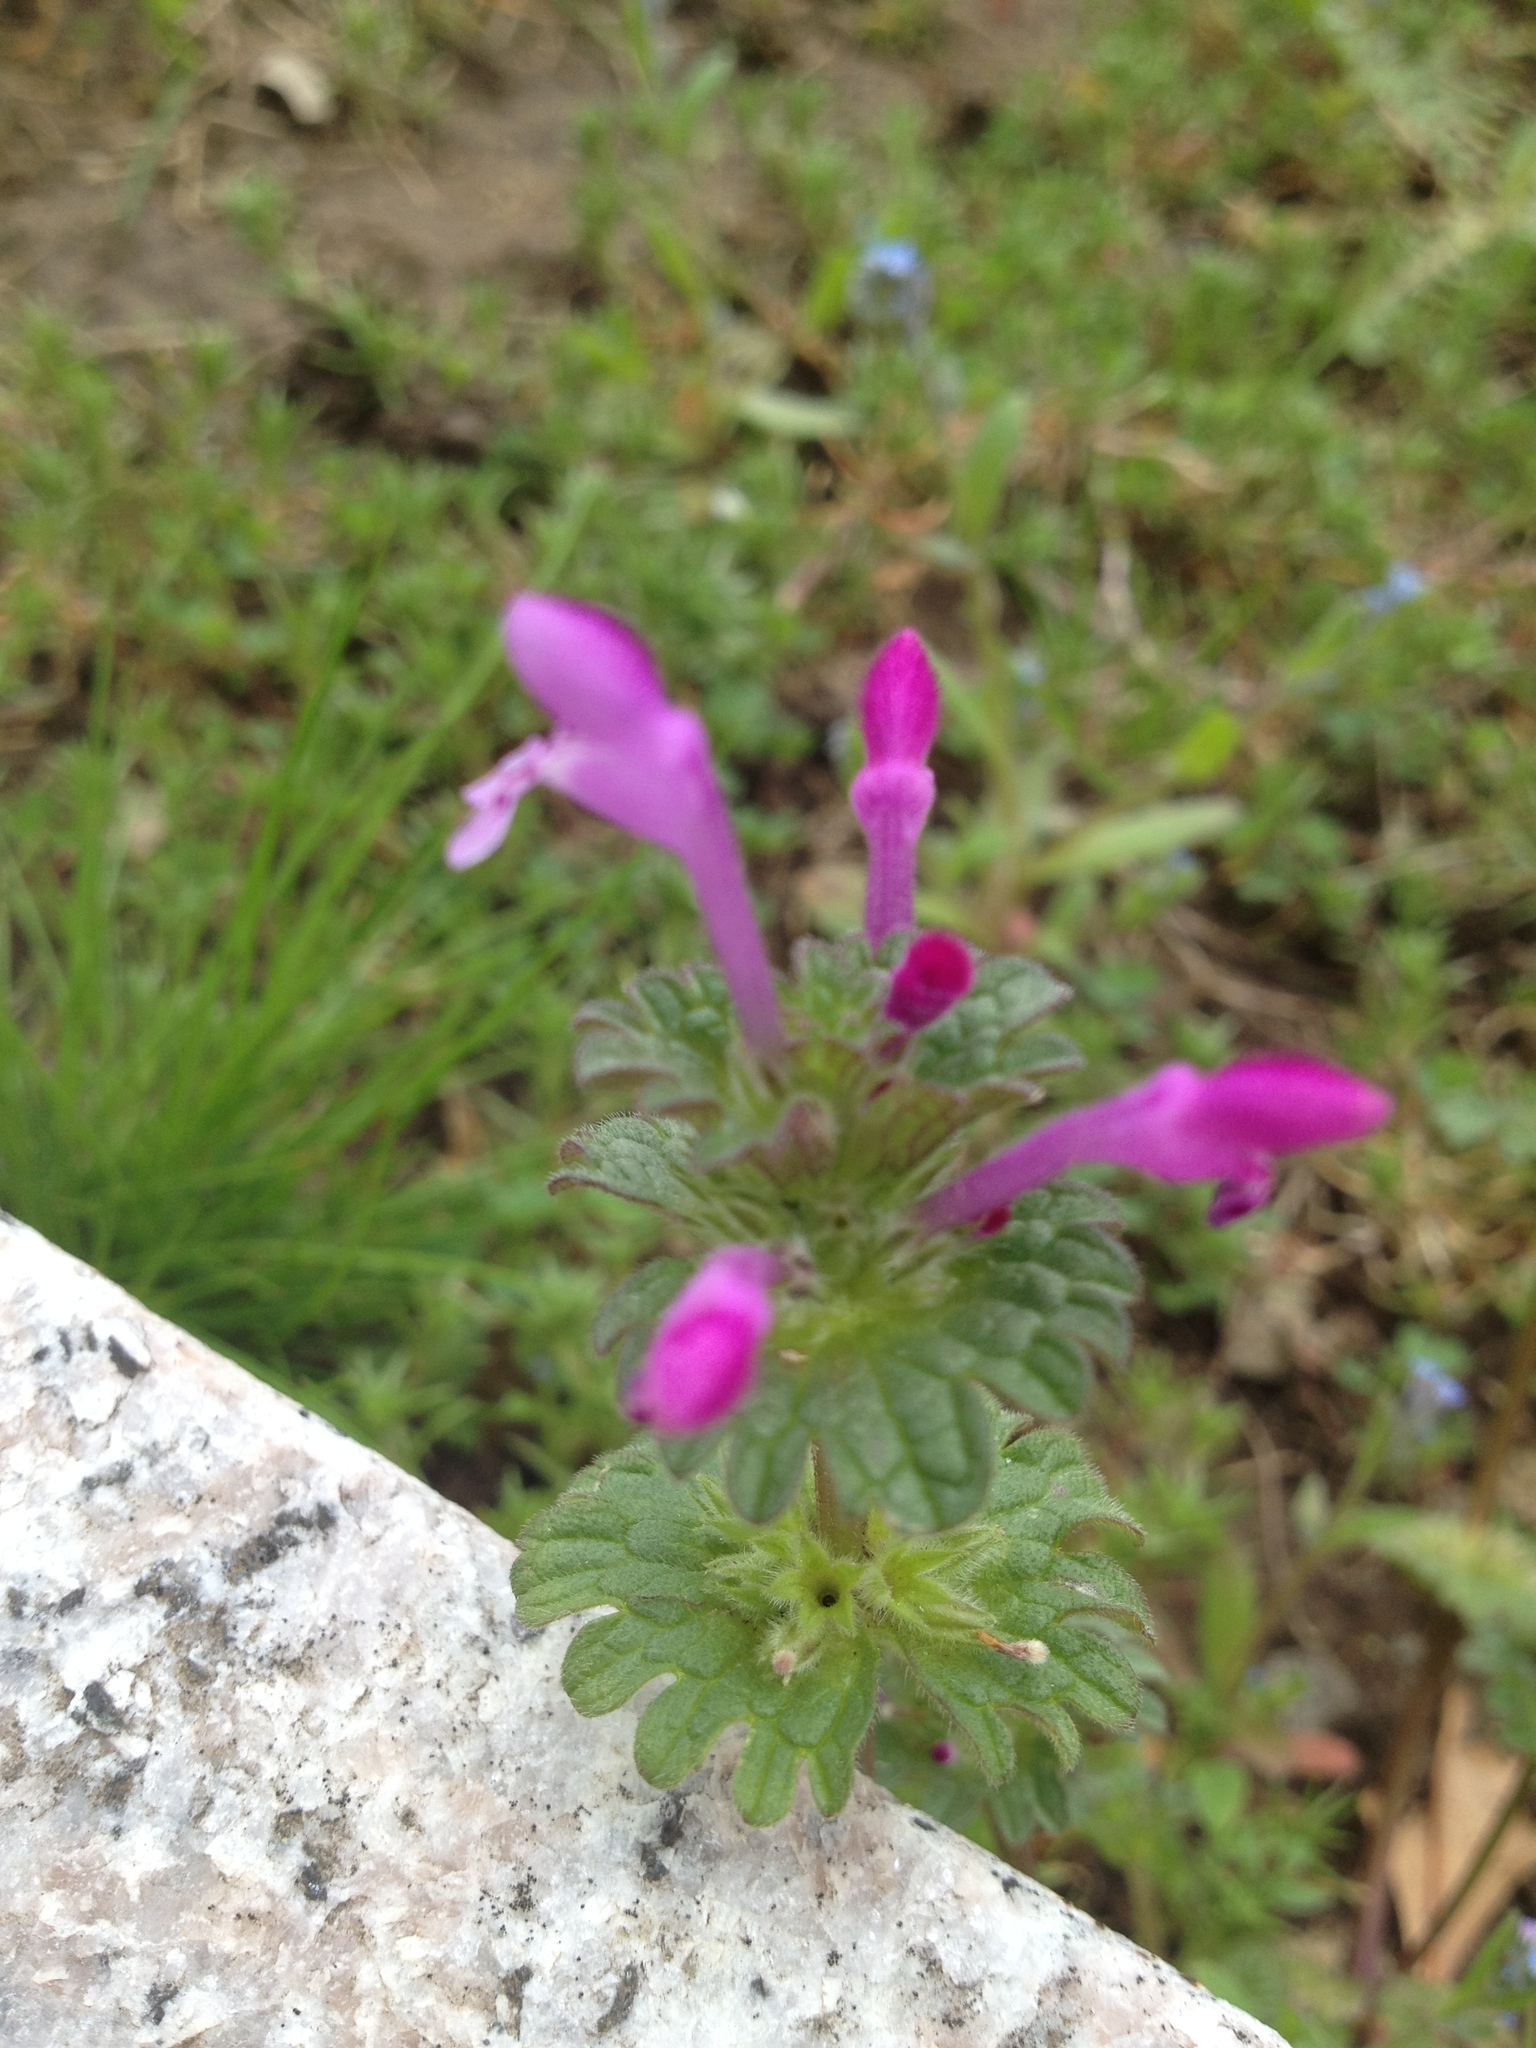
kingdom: Plantae
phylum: Tracheophyta
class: Magnoliopsida
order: Lamiales
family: Lamiaceae
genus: Lamium
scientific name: Lamium amplexicaule
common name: Henbit dead-nettle
